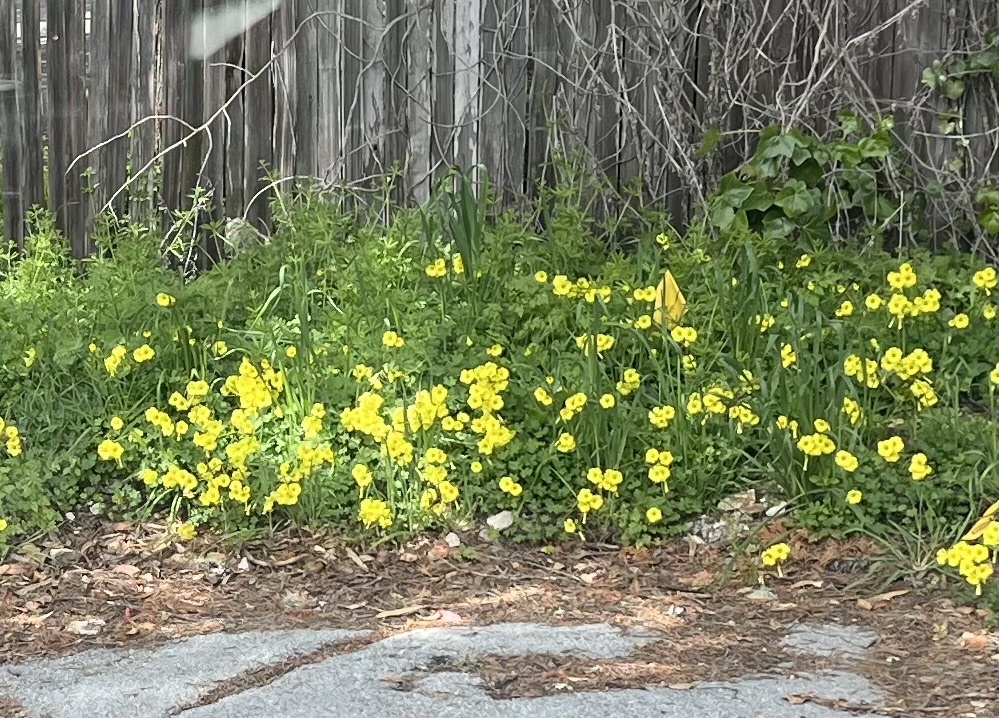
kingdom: Plantae
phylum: Tracheophyta
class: Magnoliopsida
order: Oxalidales
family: Oxalidaceae
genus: Oxalis
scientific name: Oxalis pes-caprae
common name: Bermuda-buttercup
